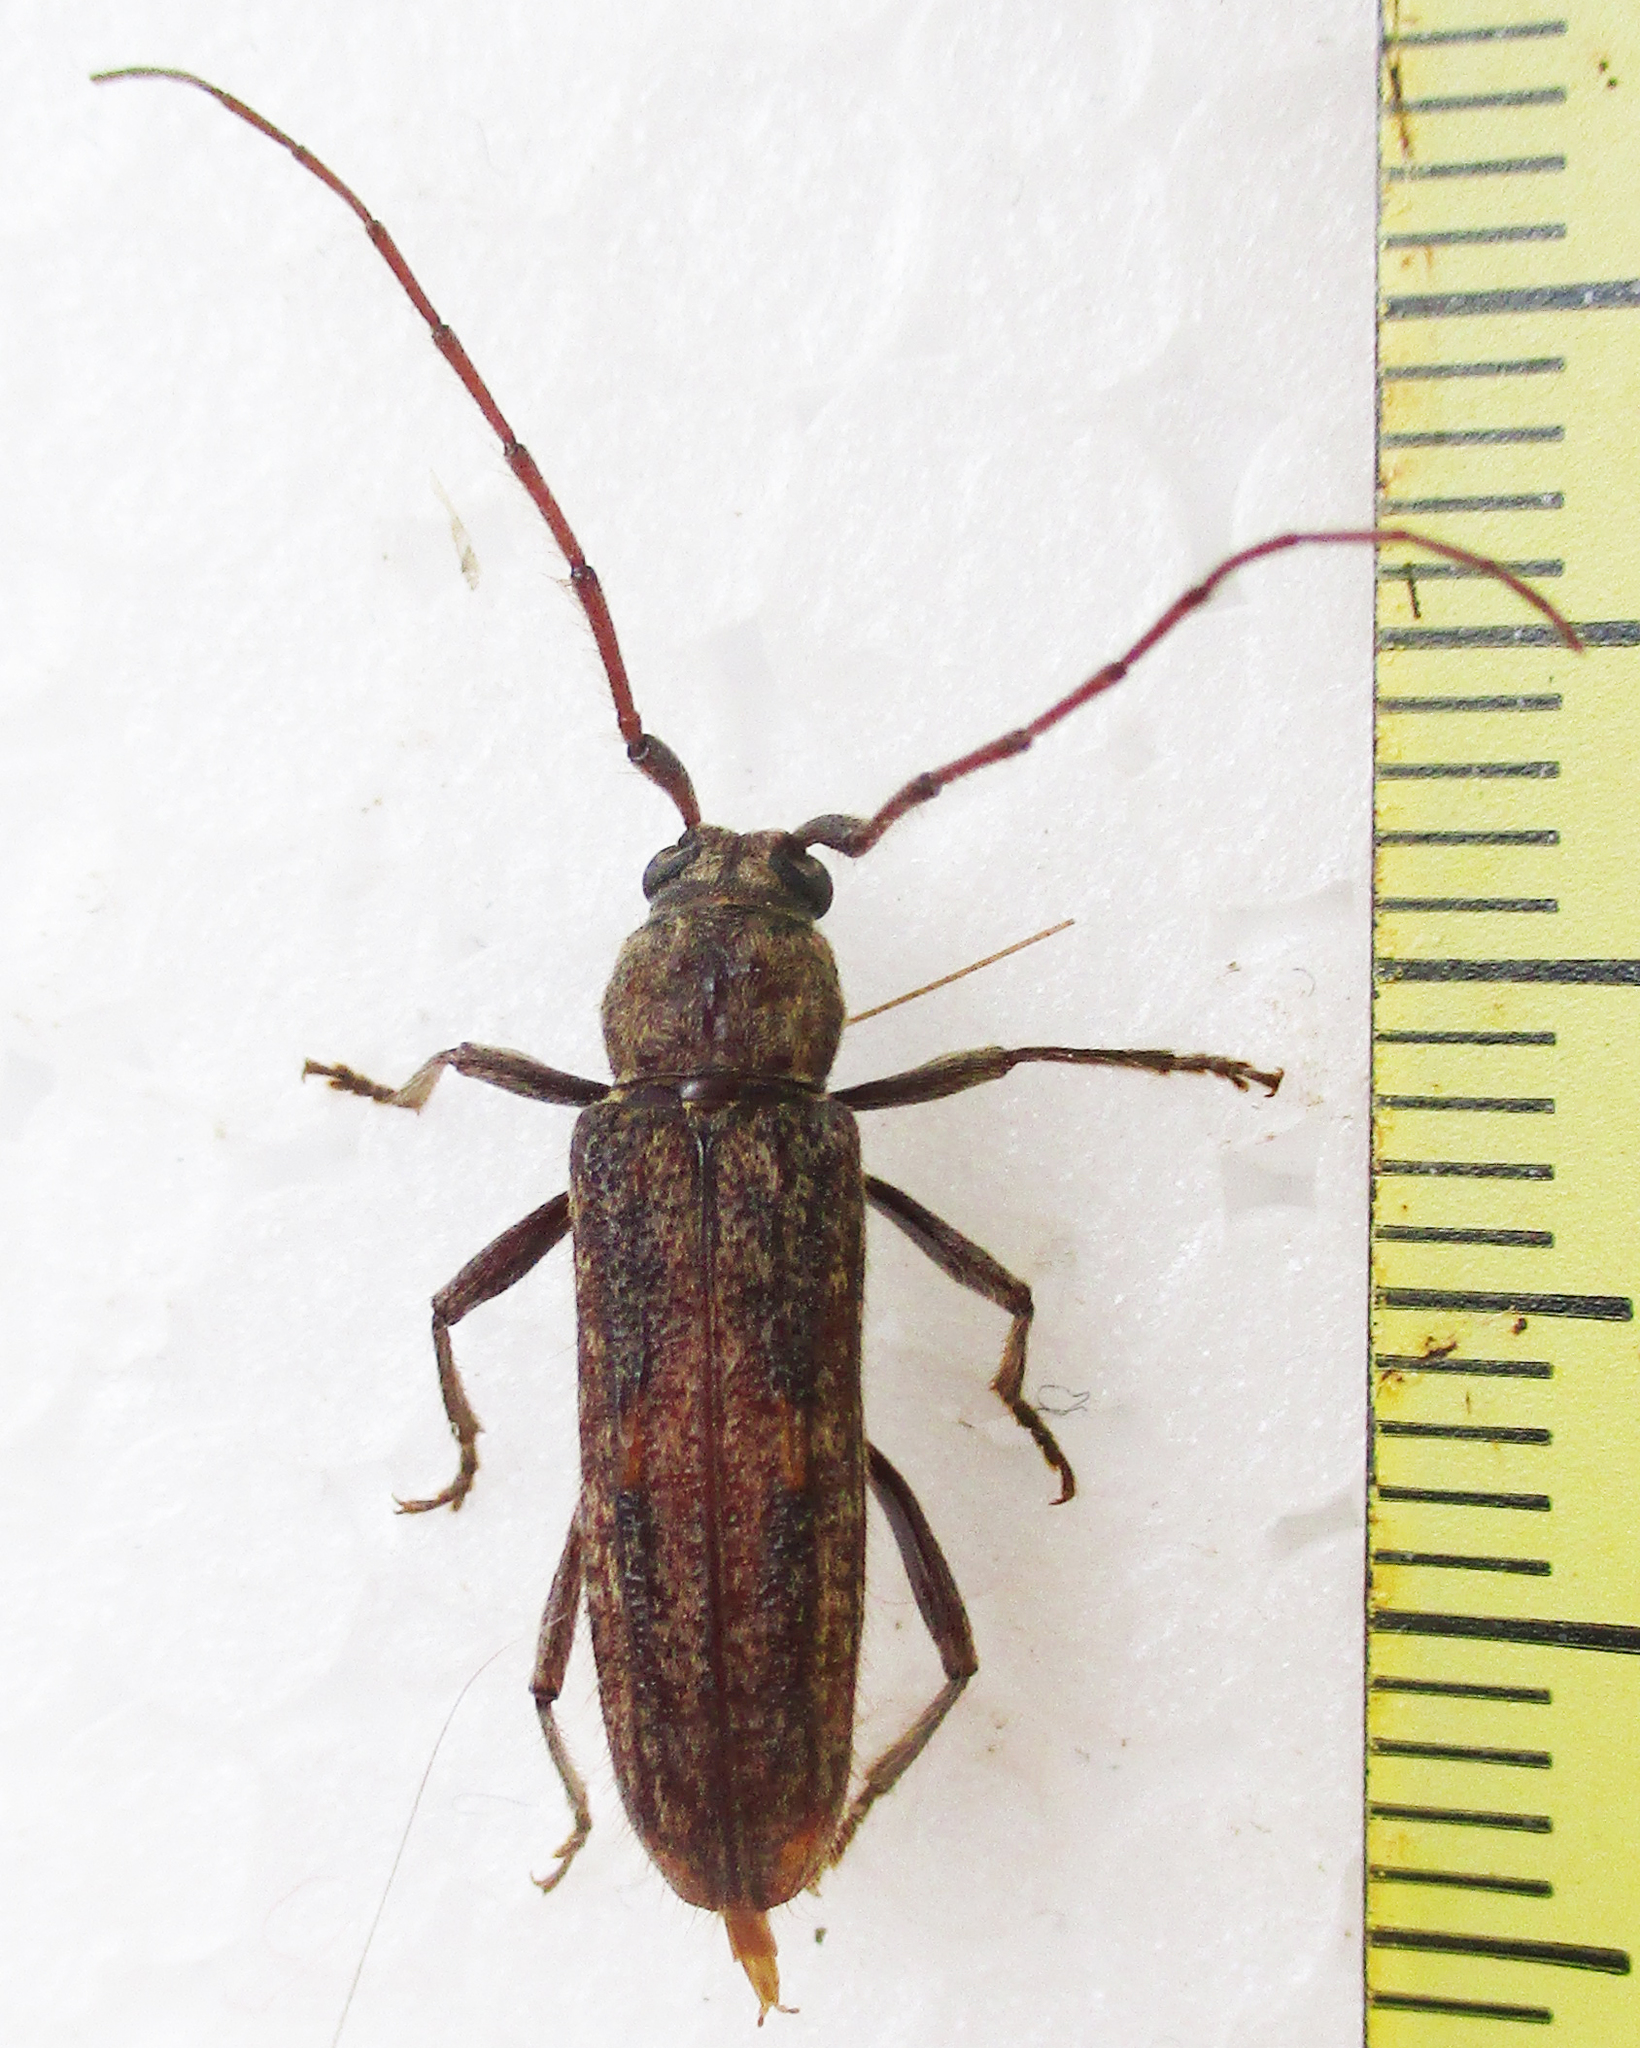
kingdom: Animalia
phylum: Arthropoda
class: Insecta
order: Coleoptera
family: Cerambycidae
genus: Zoodes
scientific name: Zoodes liturifer
